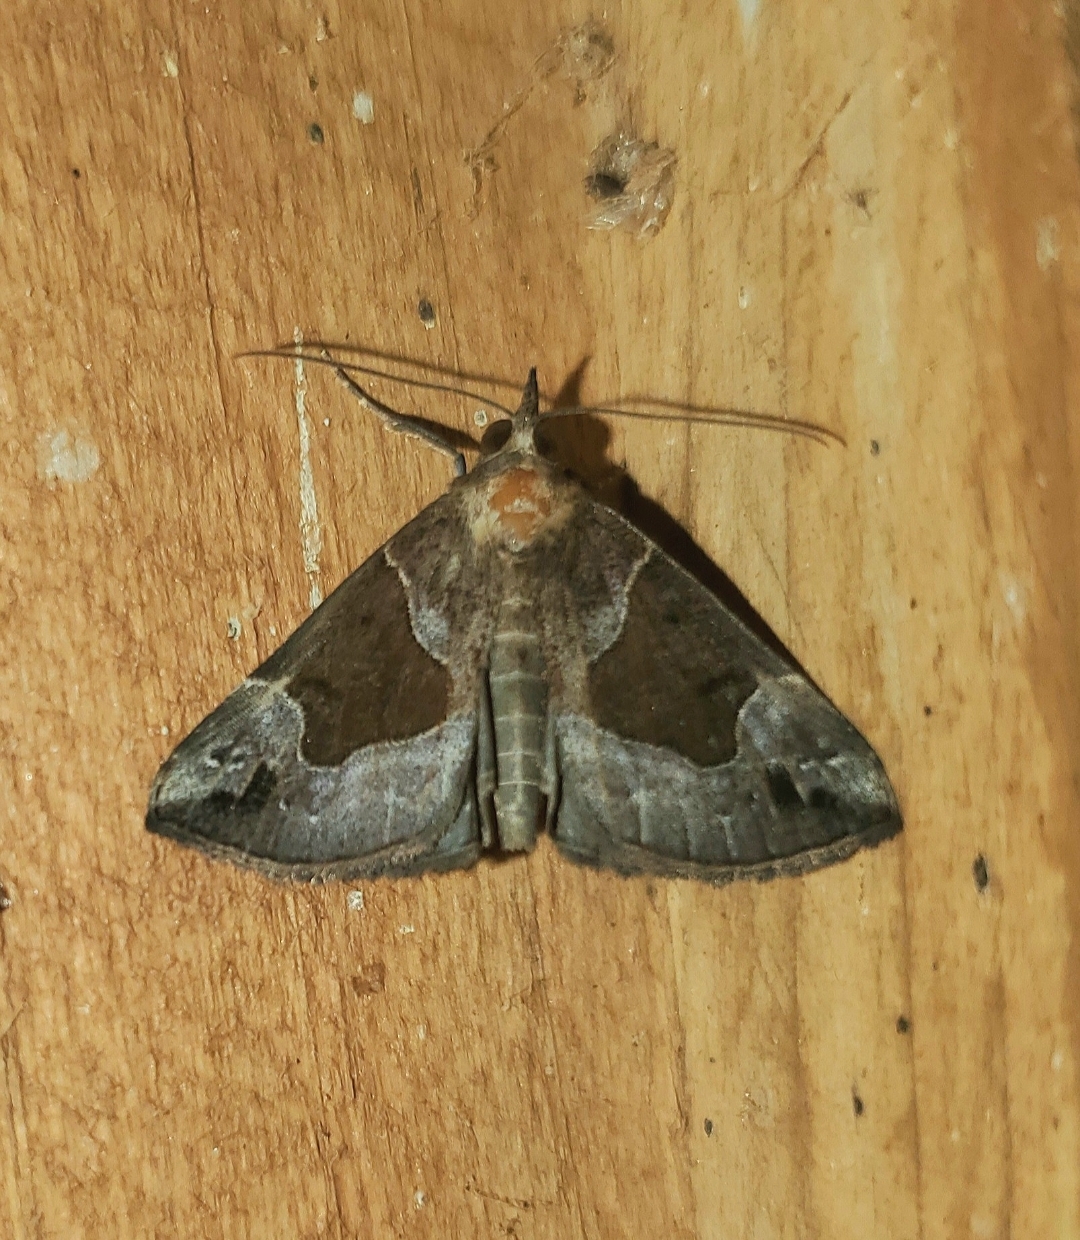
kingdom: Animalia
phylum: Arthropoda
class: Insecta
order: Lepidoptera
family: Erebidae
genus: Hypena
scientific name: Hypena manalis
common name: Flowing-line bomolocha moth
